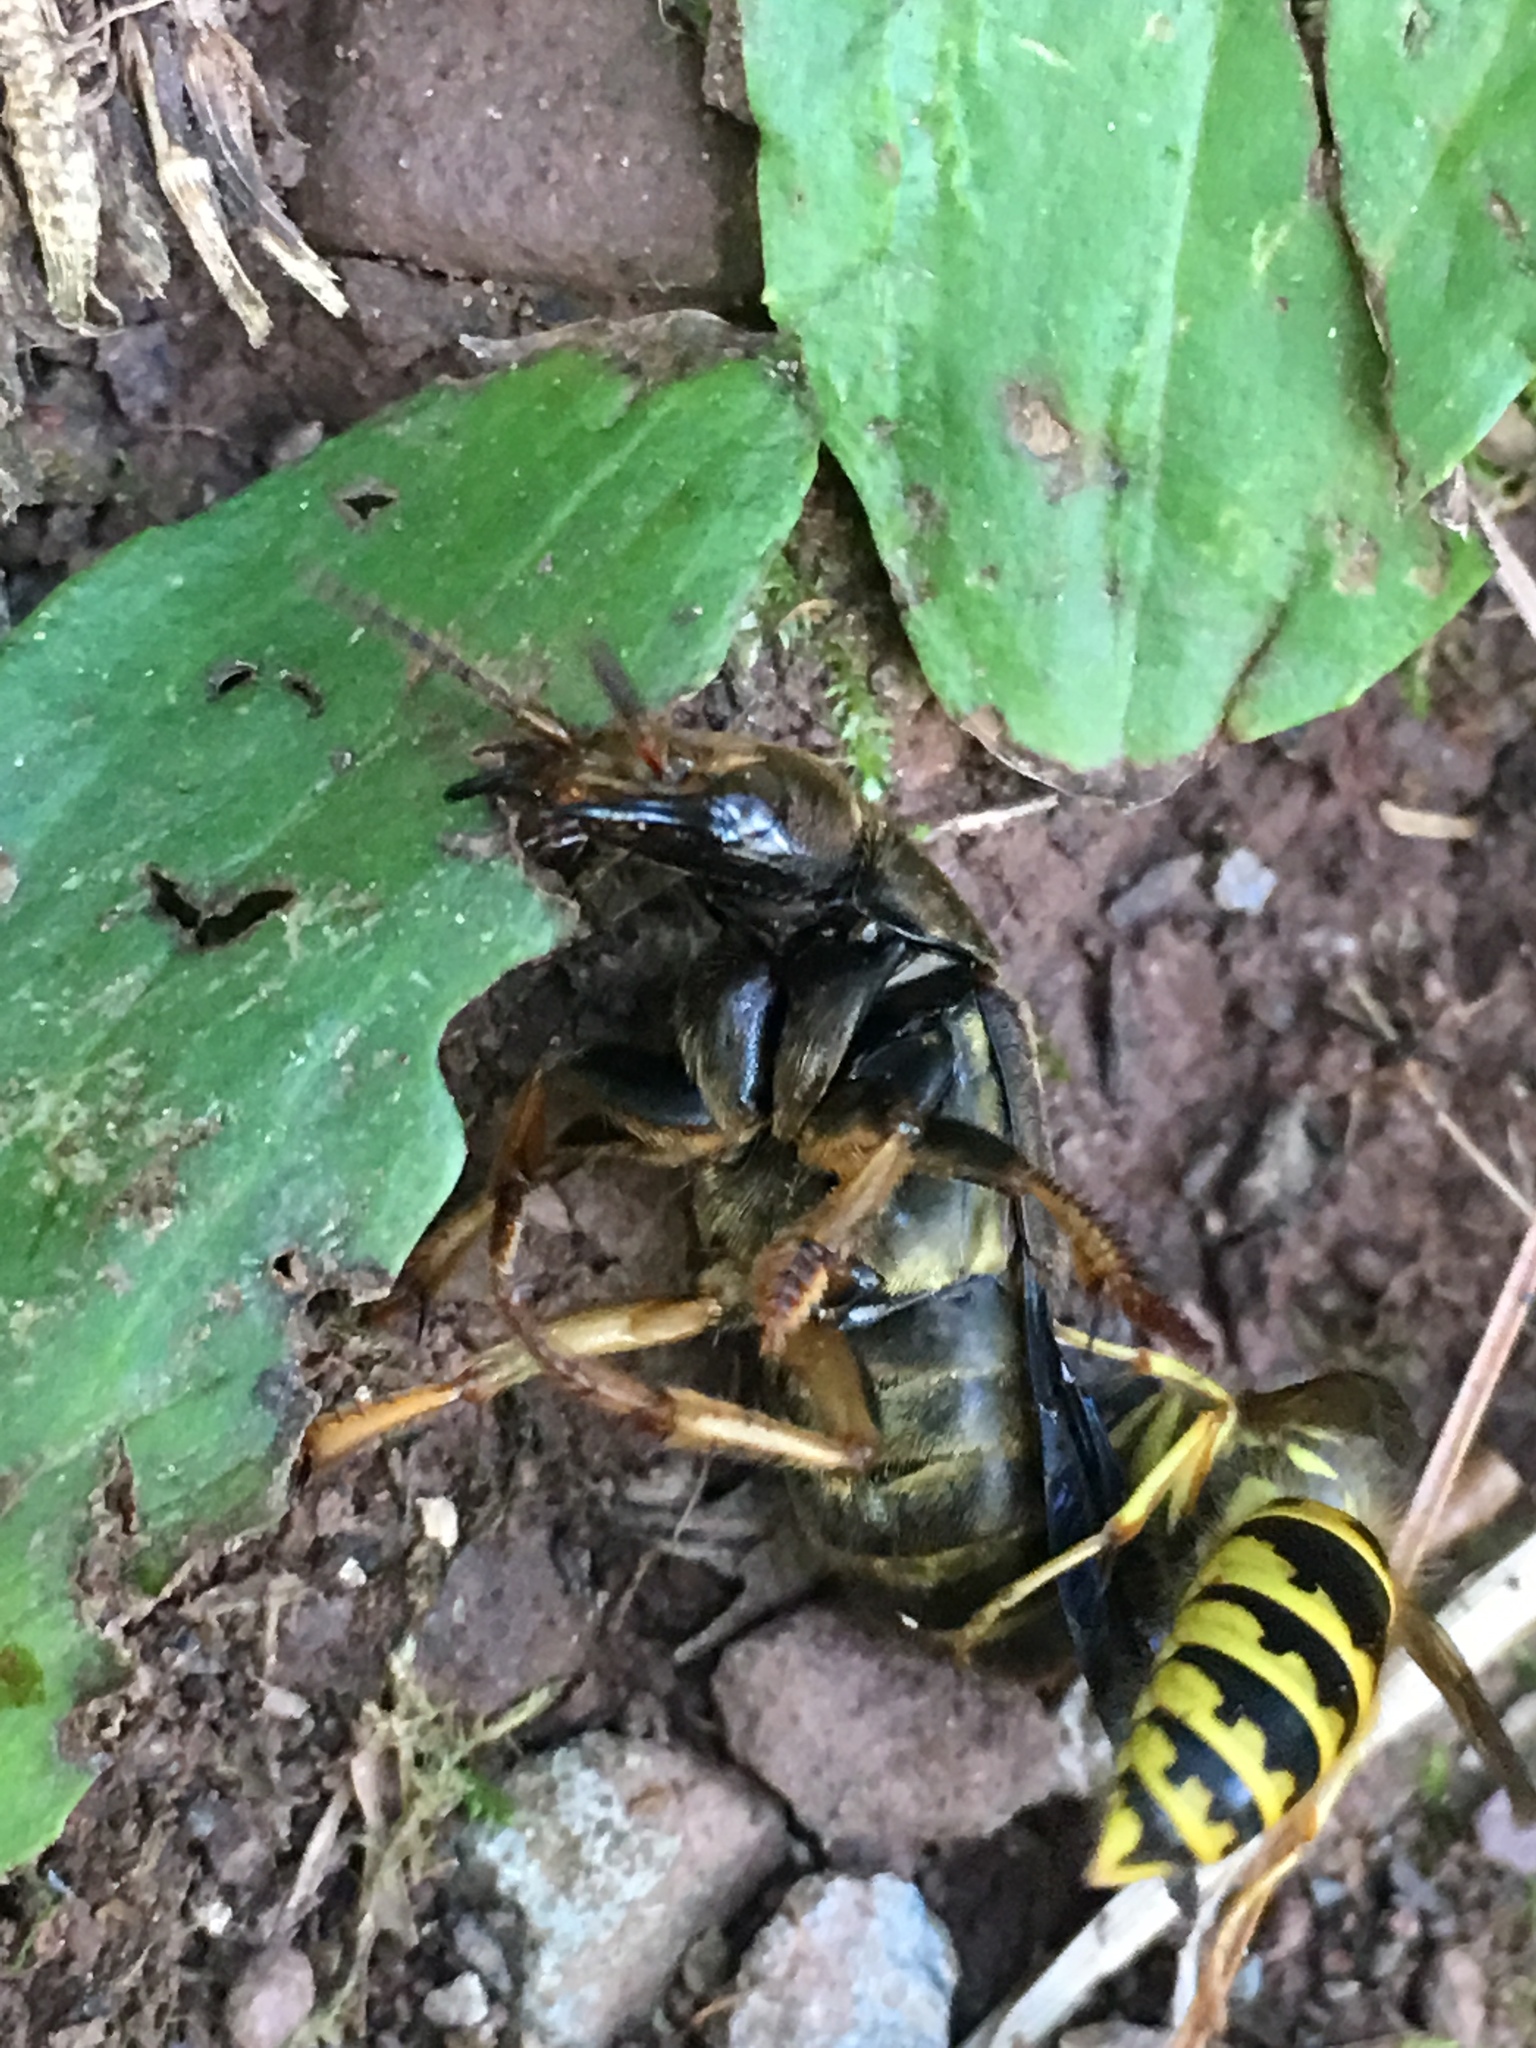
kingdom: Animalia
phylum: Arthropoda
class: Insecta
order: Hymenoptera
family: Vespidae
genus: Vespula
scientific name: Vespula flavopilosa
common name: Downy yellowjacket
